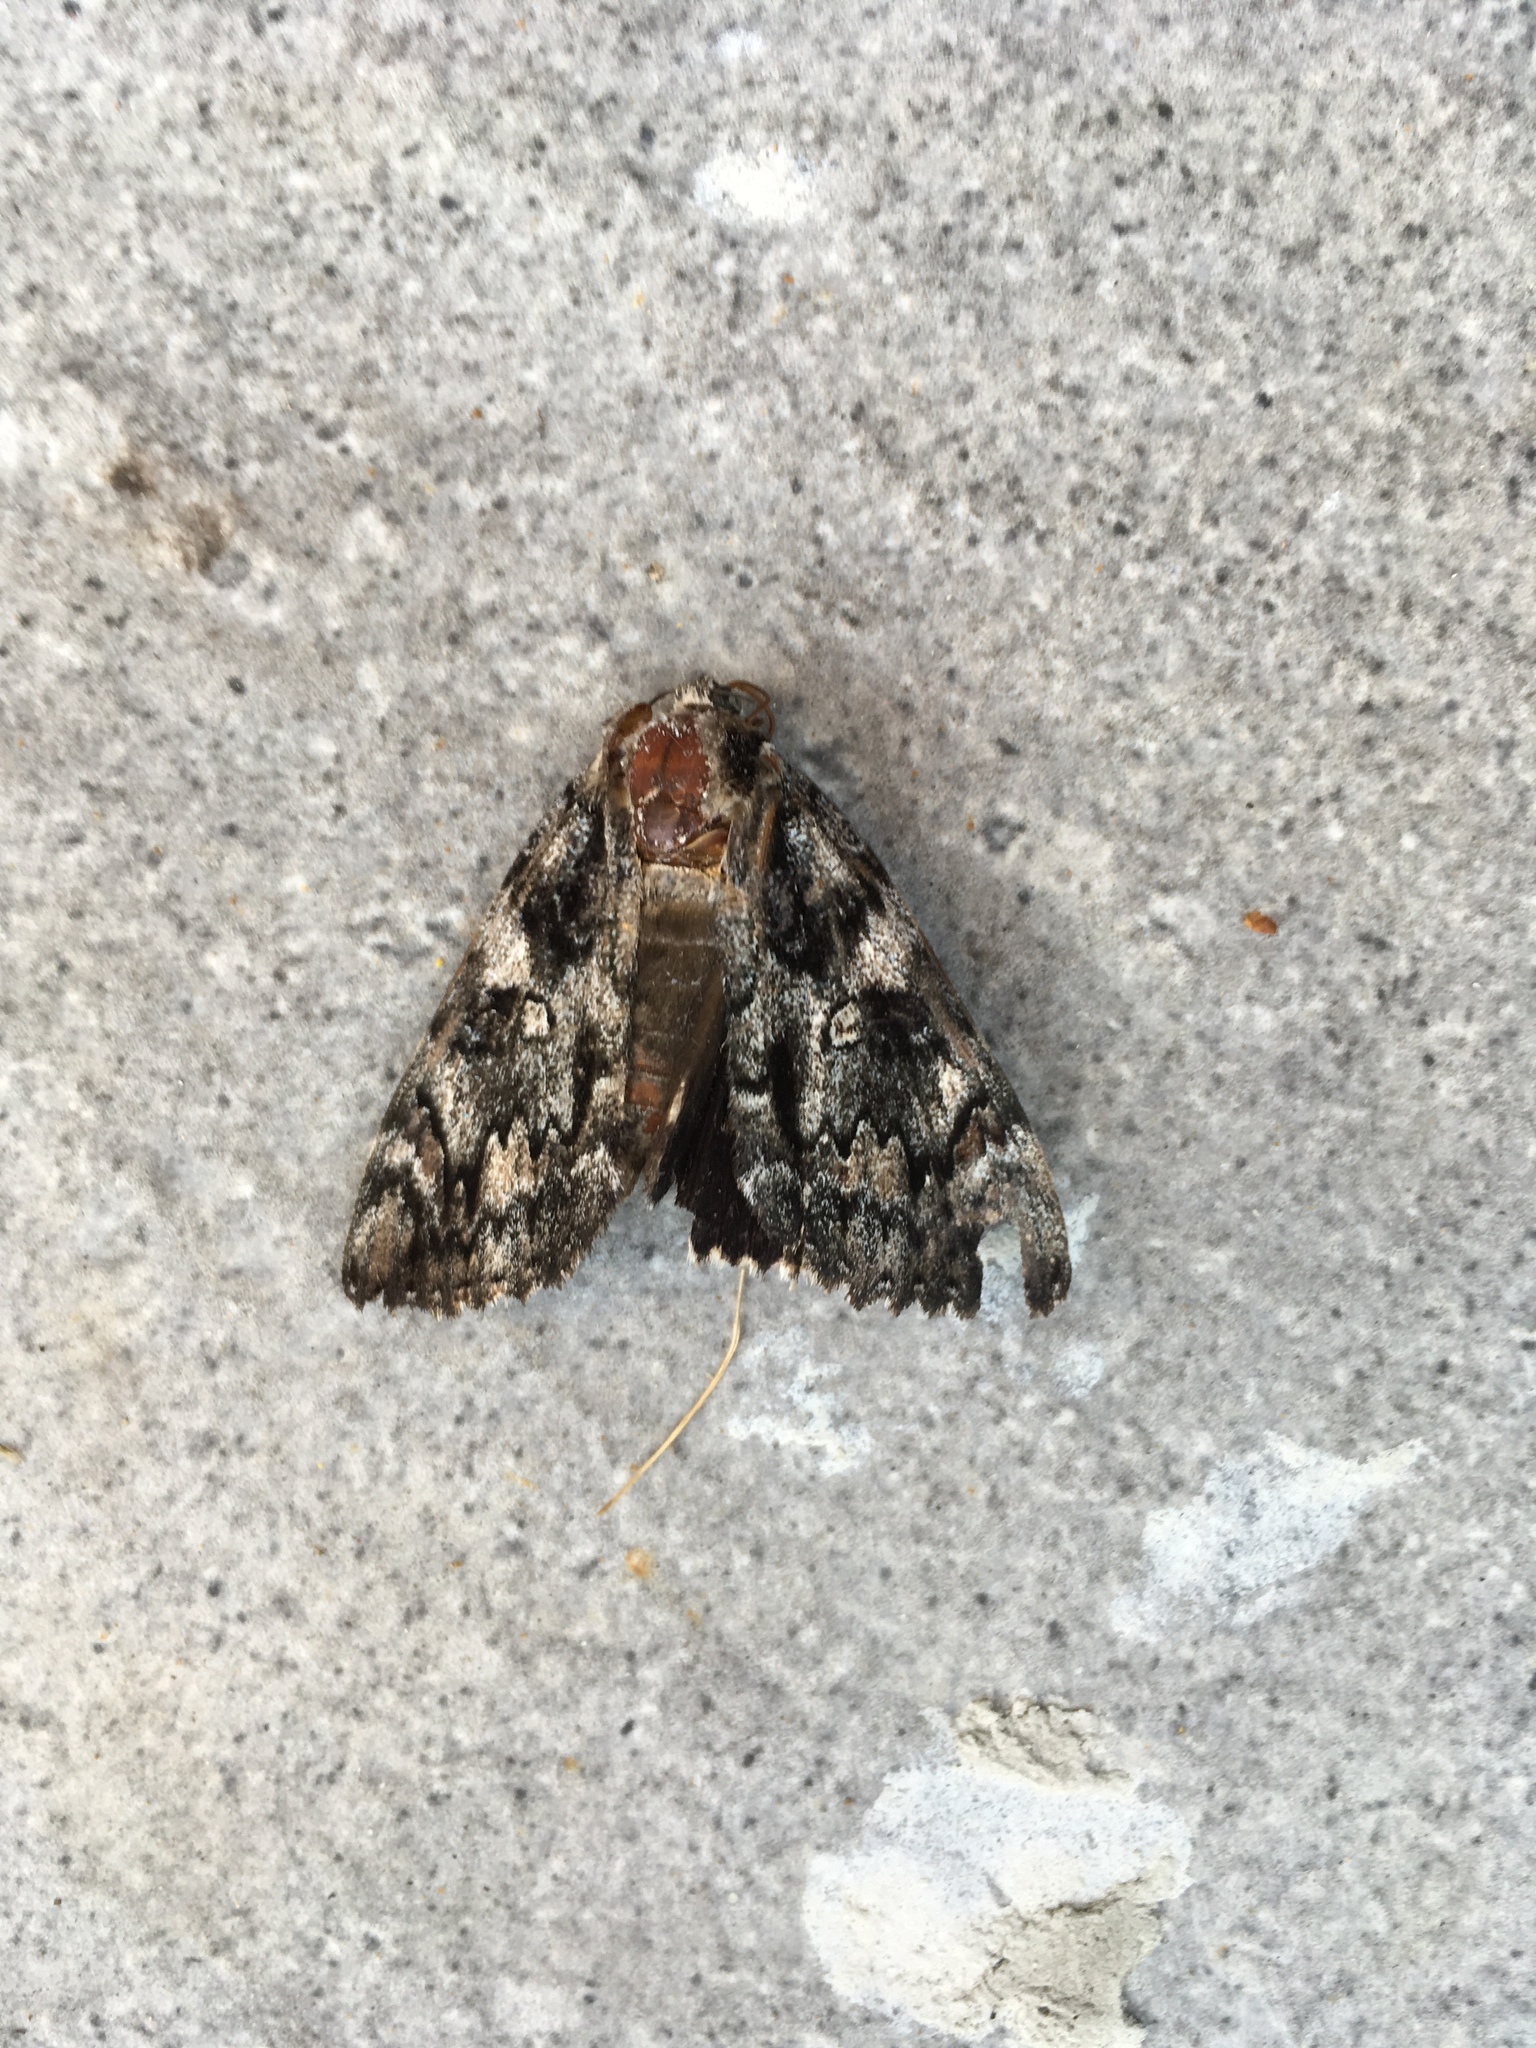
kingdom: Animalia
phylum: Arthropoda
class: Insecta
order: Lepidoptera
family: Erebidae
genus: Catocala
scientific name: Catocala lacrymosa
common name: Tearful underwing
